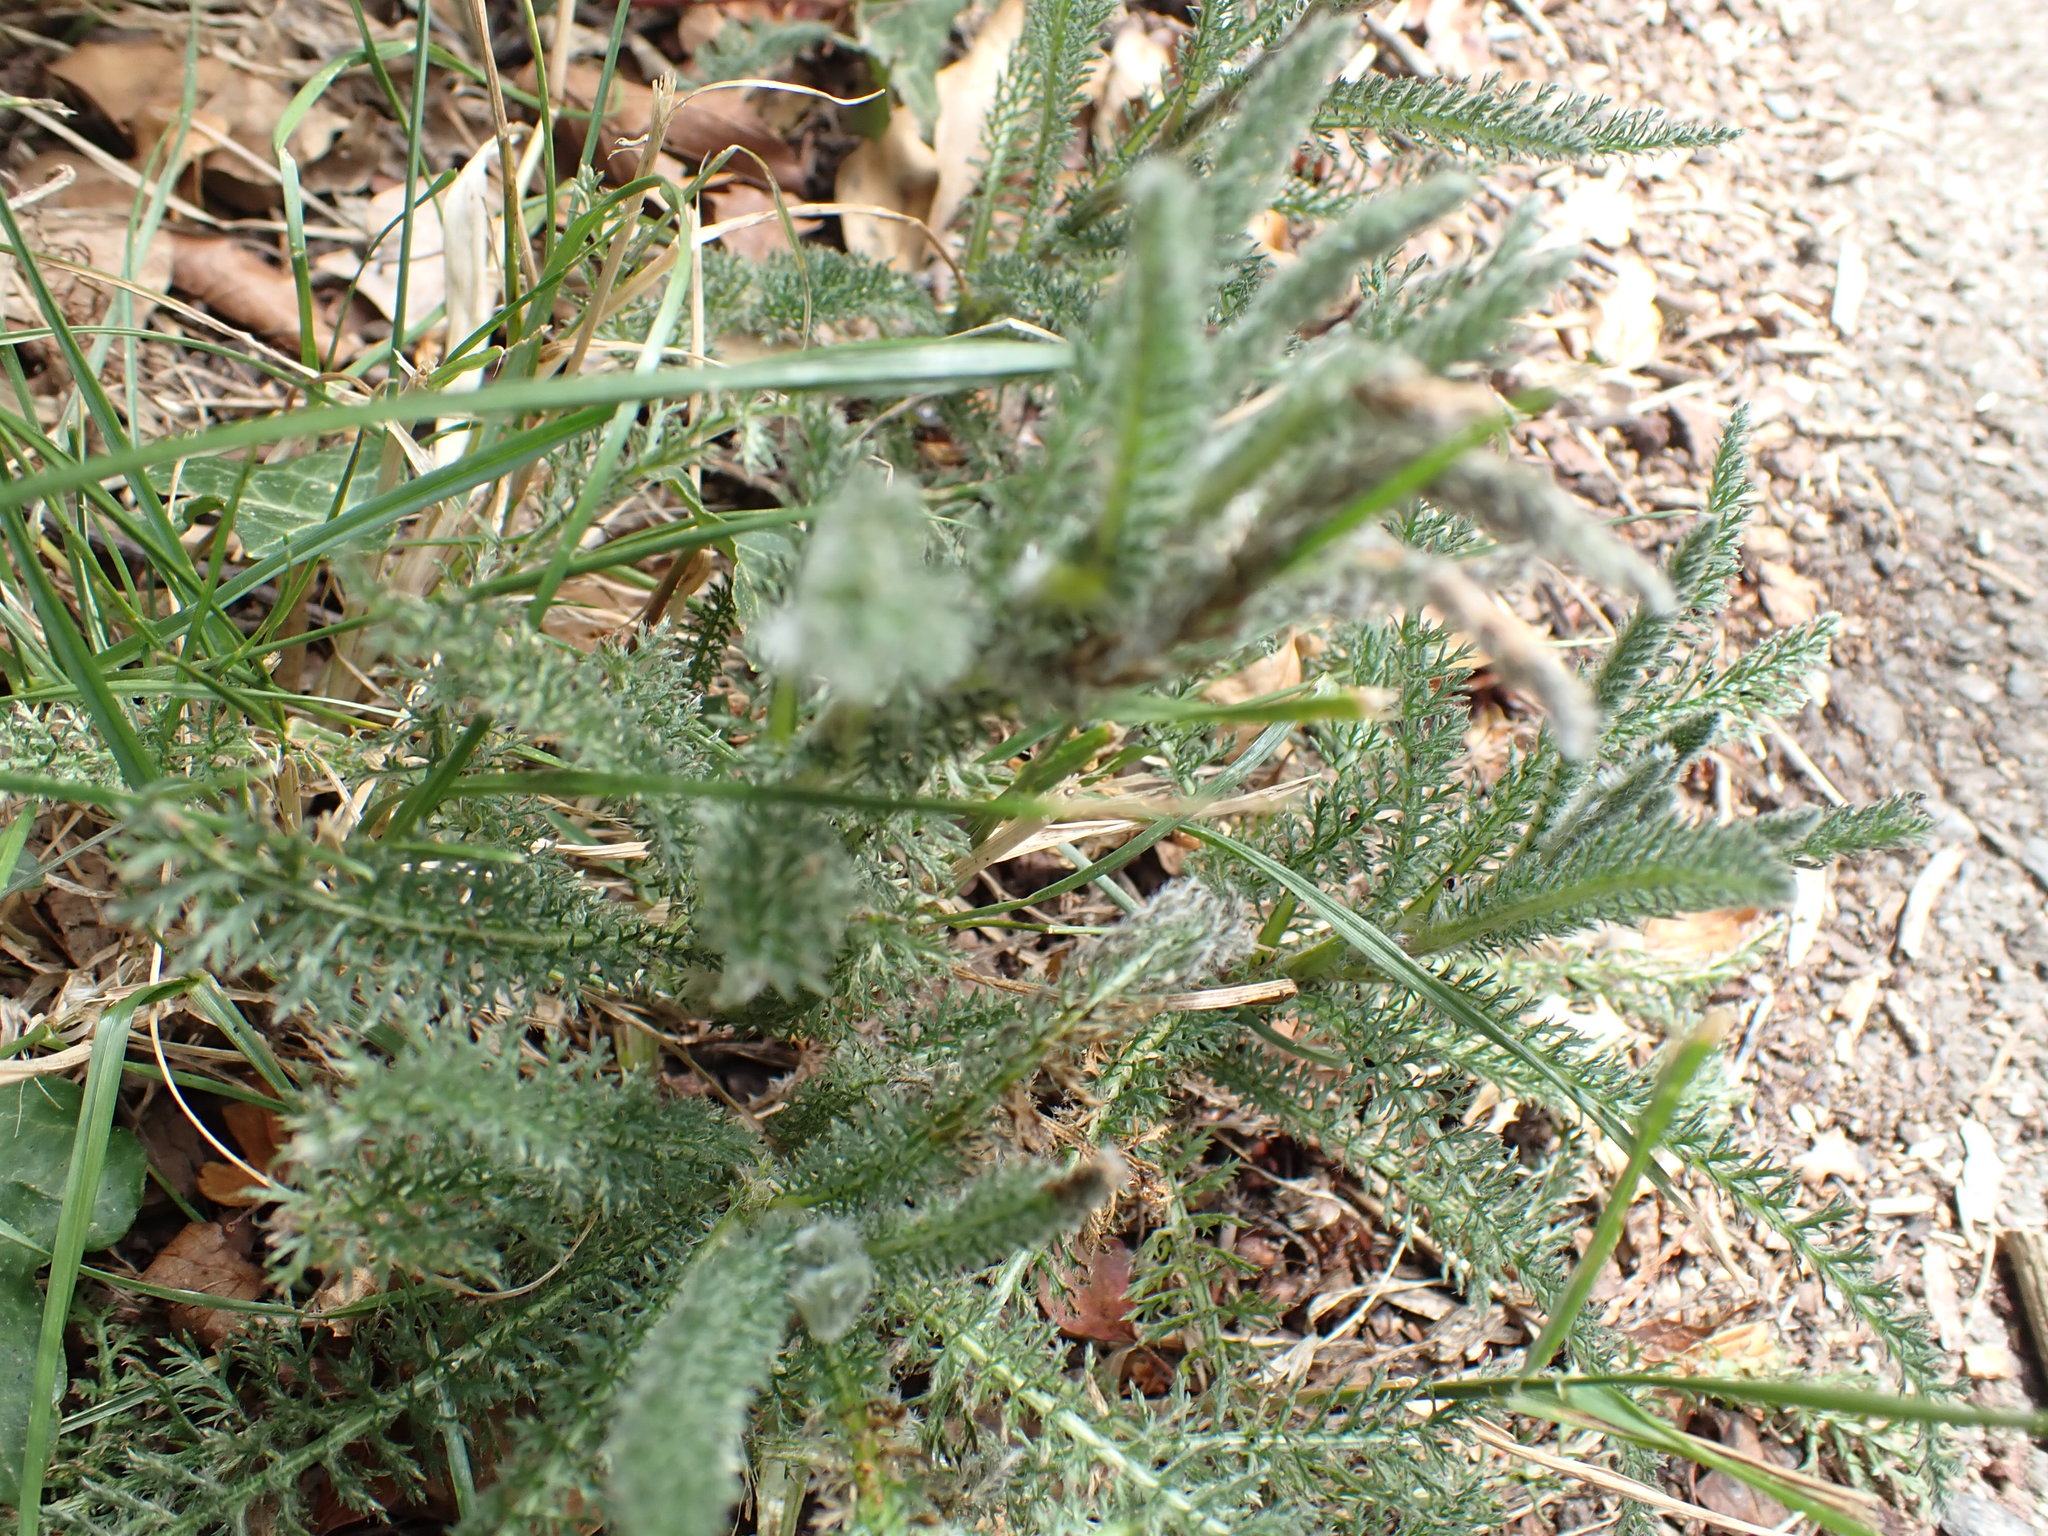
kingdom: Plantae
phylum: Tracheophyta
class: Magnoliopsida
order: Asterales
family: Asteraceae
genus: Achillea
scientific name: Achillea millefolium
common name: Yarrow
